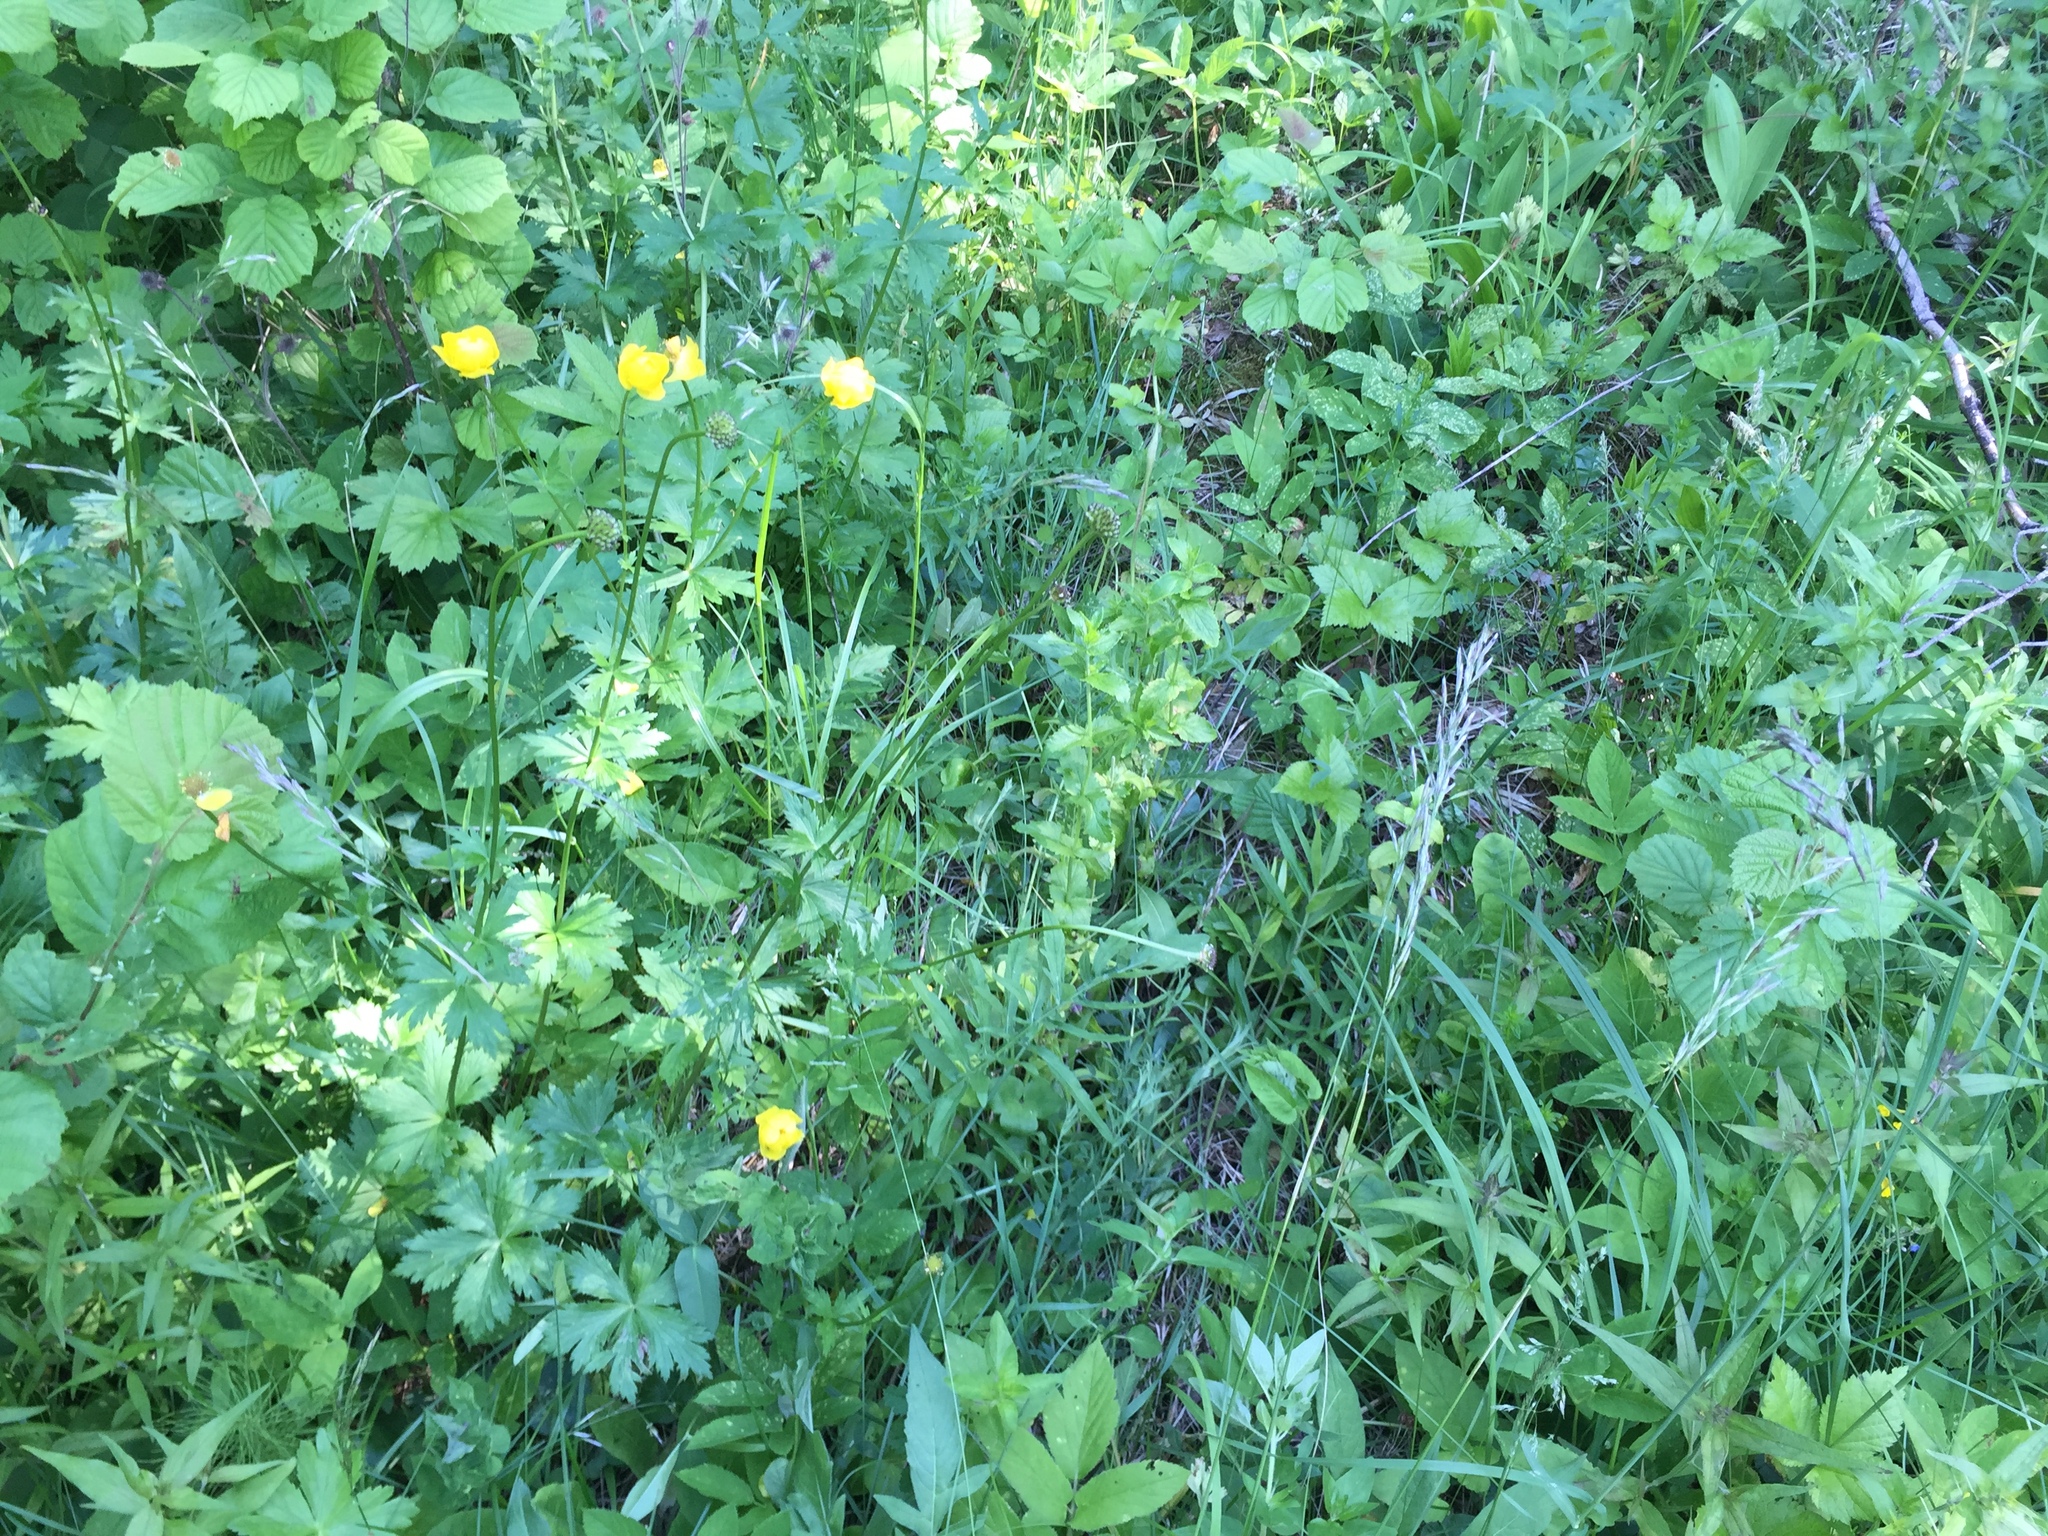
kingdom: Plantae
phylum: Tracheophyta
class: Magnoliopsida
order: Ranunculales
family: Ranunculaceae
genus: Trollius
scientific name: Trollius europaeus
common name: European globeflower
